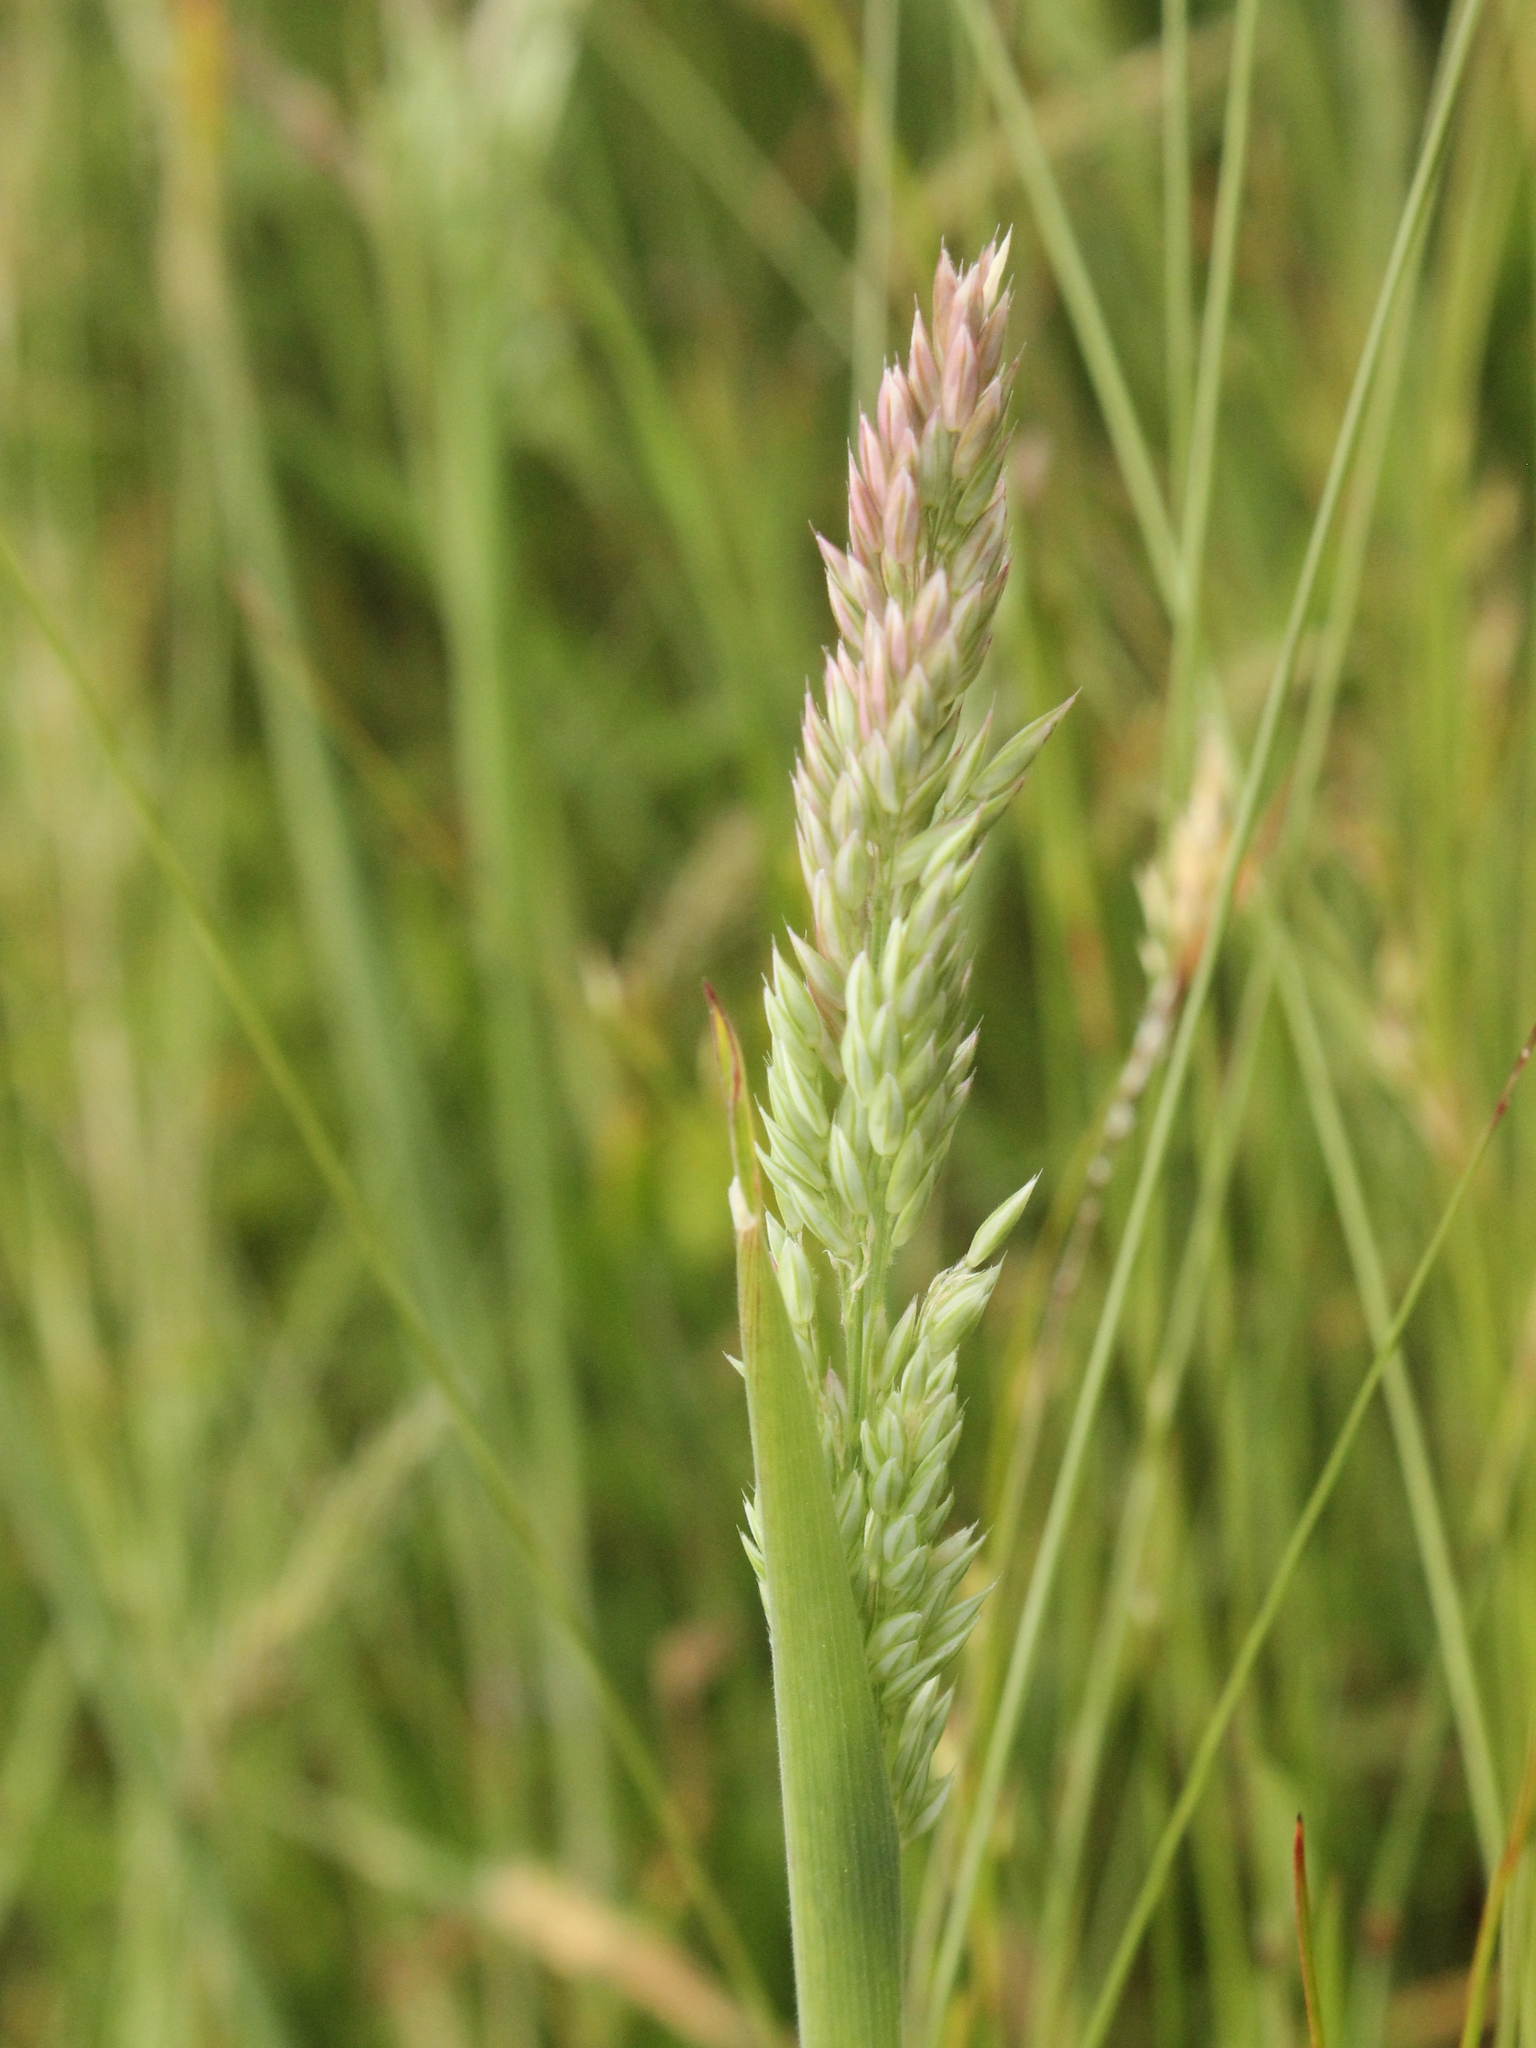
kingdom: Plantae
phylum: Tracheophyta
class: Liliopsida
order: Poales
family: Poaceae
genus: Holcus
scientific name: Holcus lanatus
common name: Yorkshire-fog
